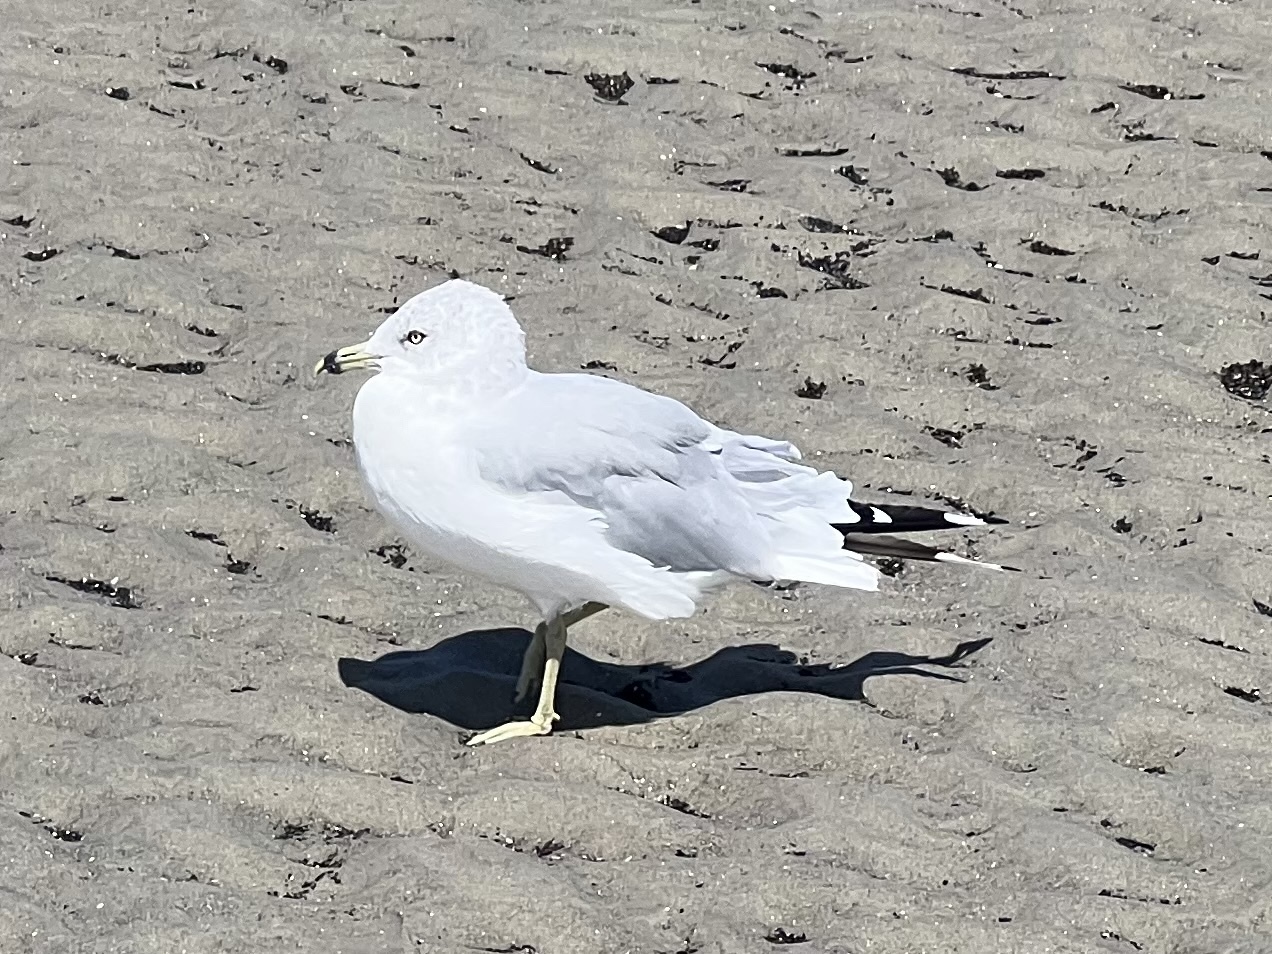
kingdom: Animalia
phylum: Chordata
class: Aves
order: Charadriiformes
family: Laridae
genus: Larus
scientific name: Larus delawarensis
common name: Ring-billed gull
